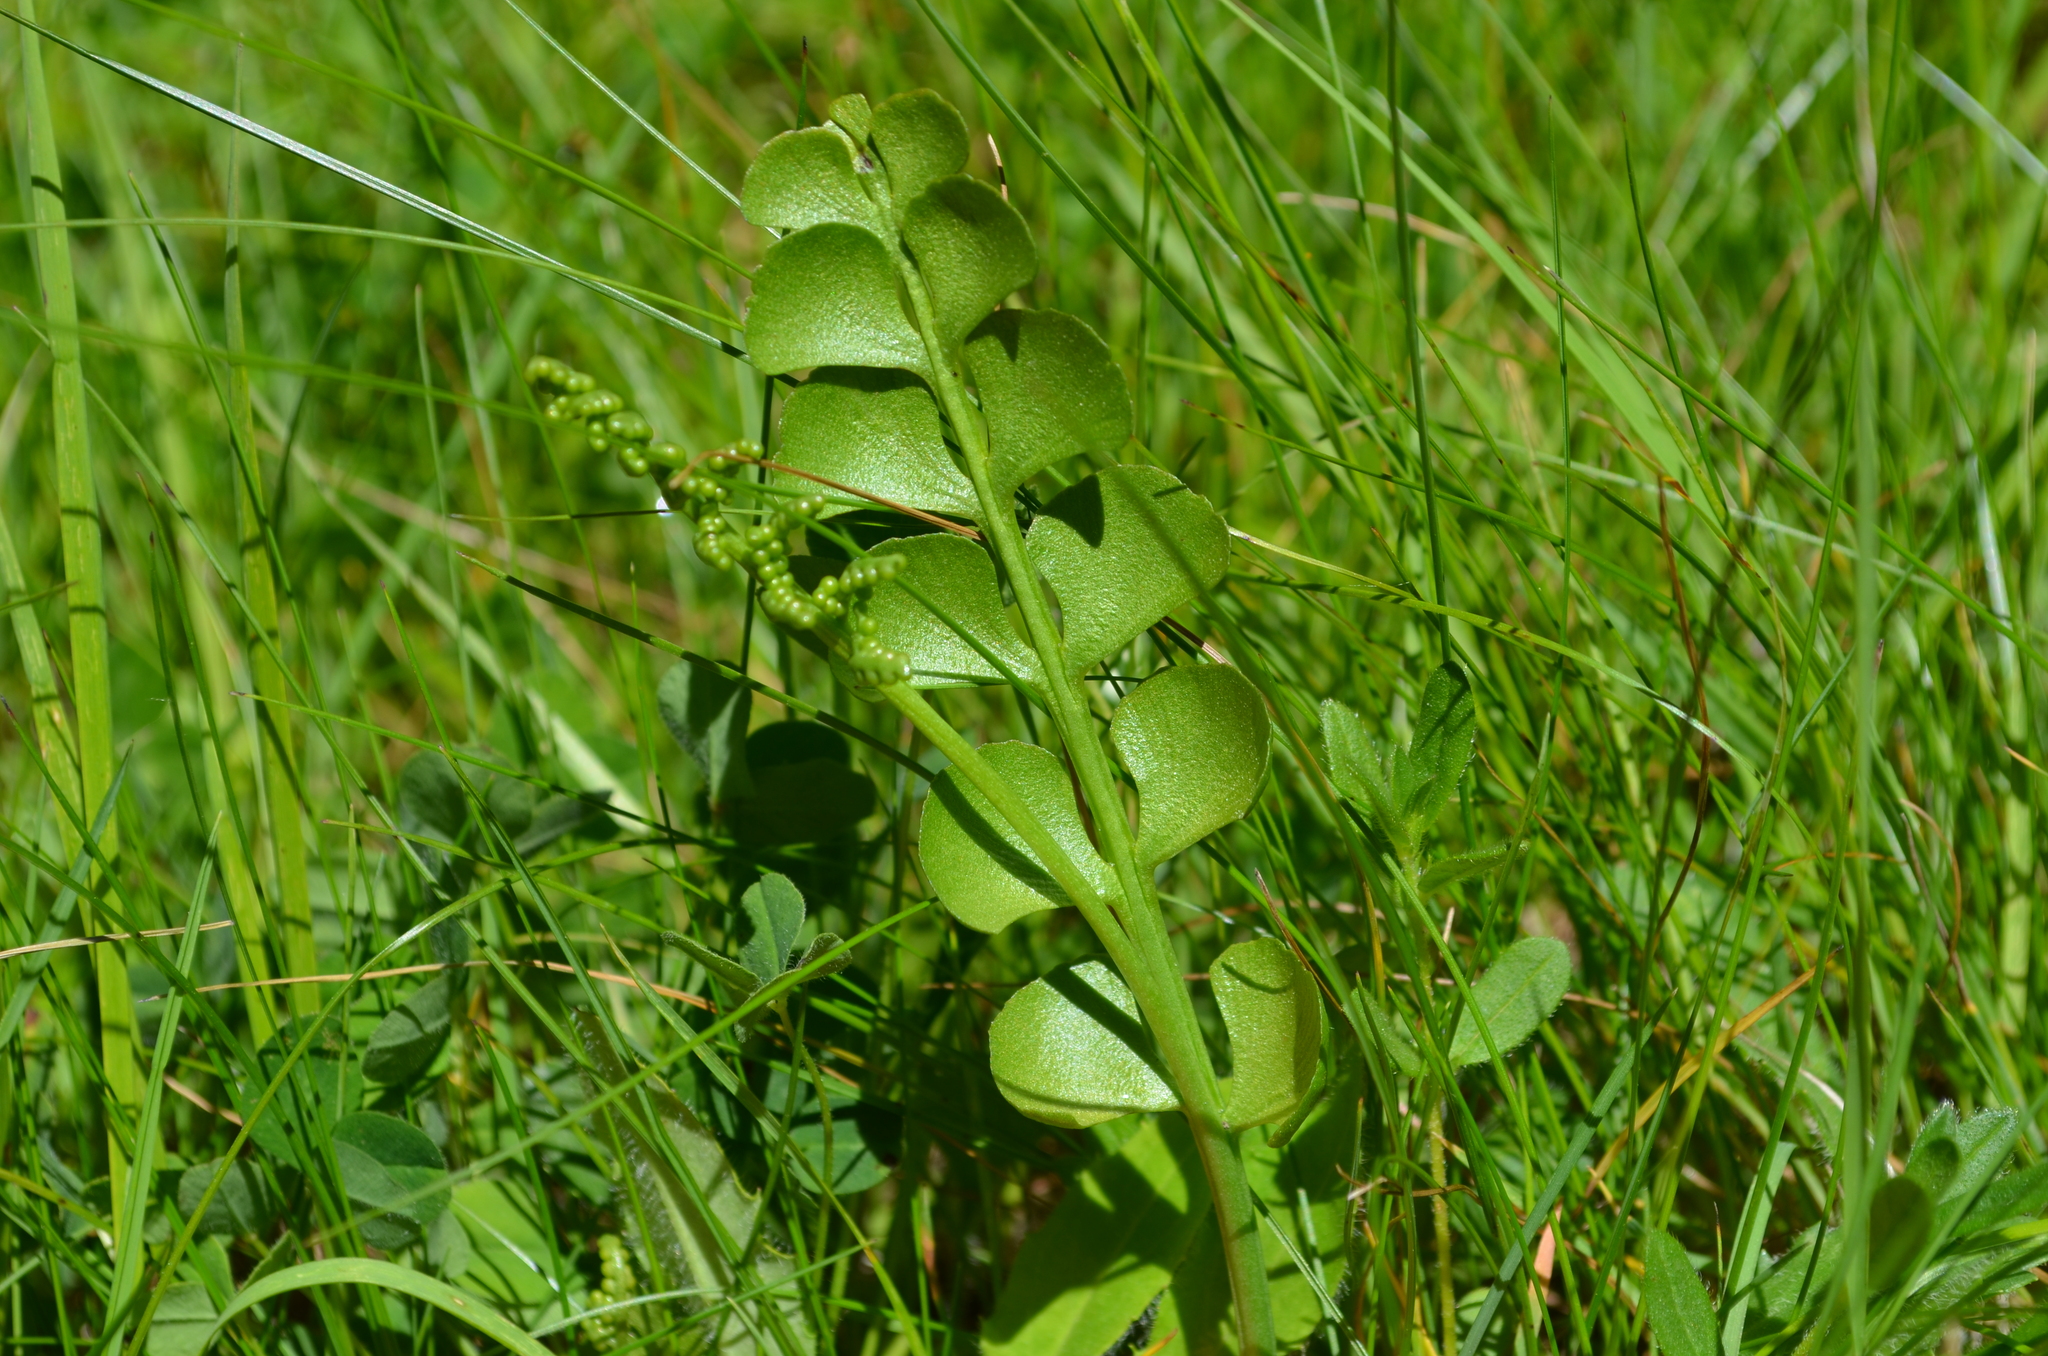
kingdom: Plantae
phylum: Tracheophyta
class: Polypodiopsida
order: Ophioglossales
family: Ophioglossaceae
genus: Botrychium
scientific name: Botrychium lunaria
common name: Moonwort
